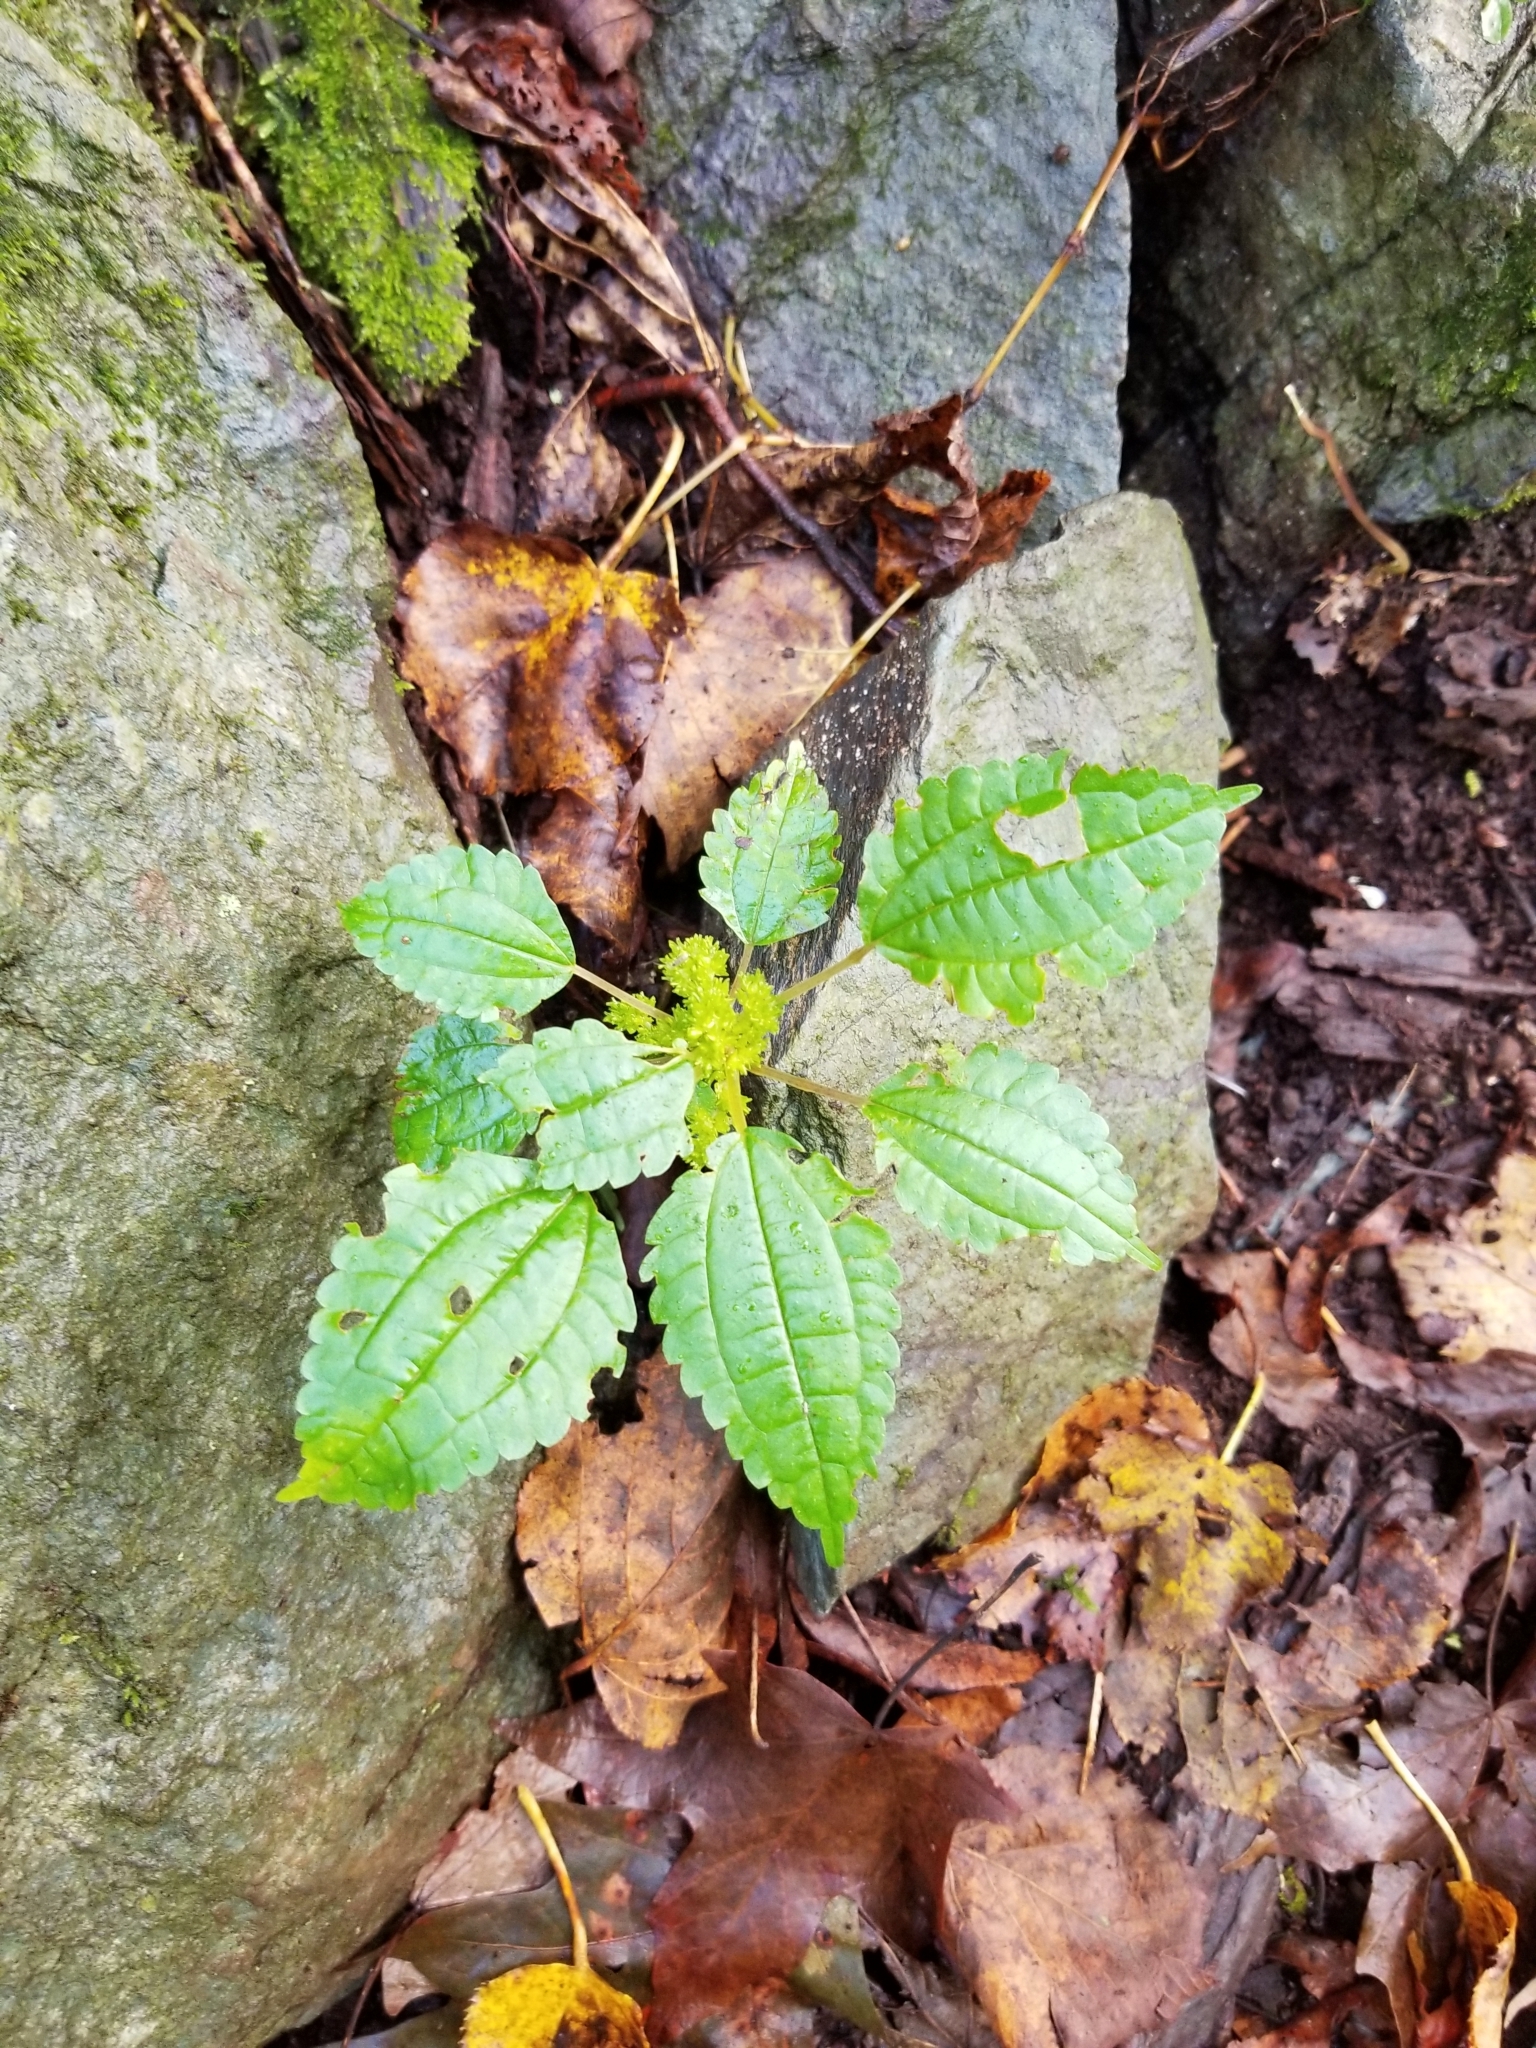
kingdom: Plantae
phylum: Tracheophyta
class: Magnoliopsida
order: Rosales
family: Urticaceae
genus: Pilea
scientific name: Pilea pumila
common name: Clearweed
